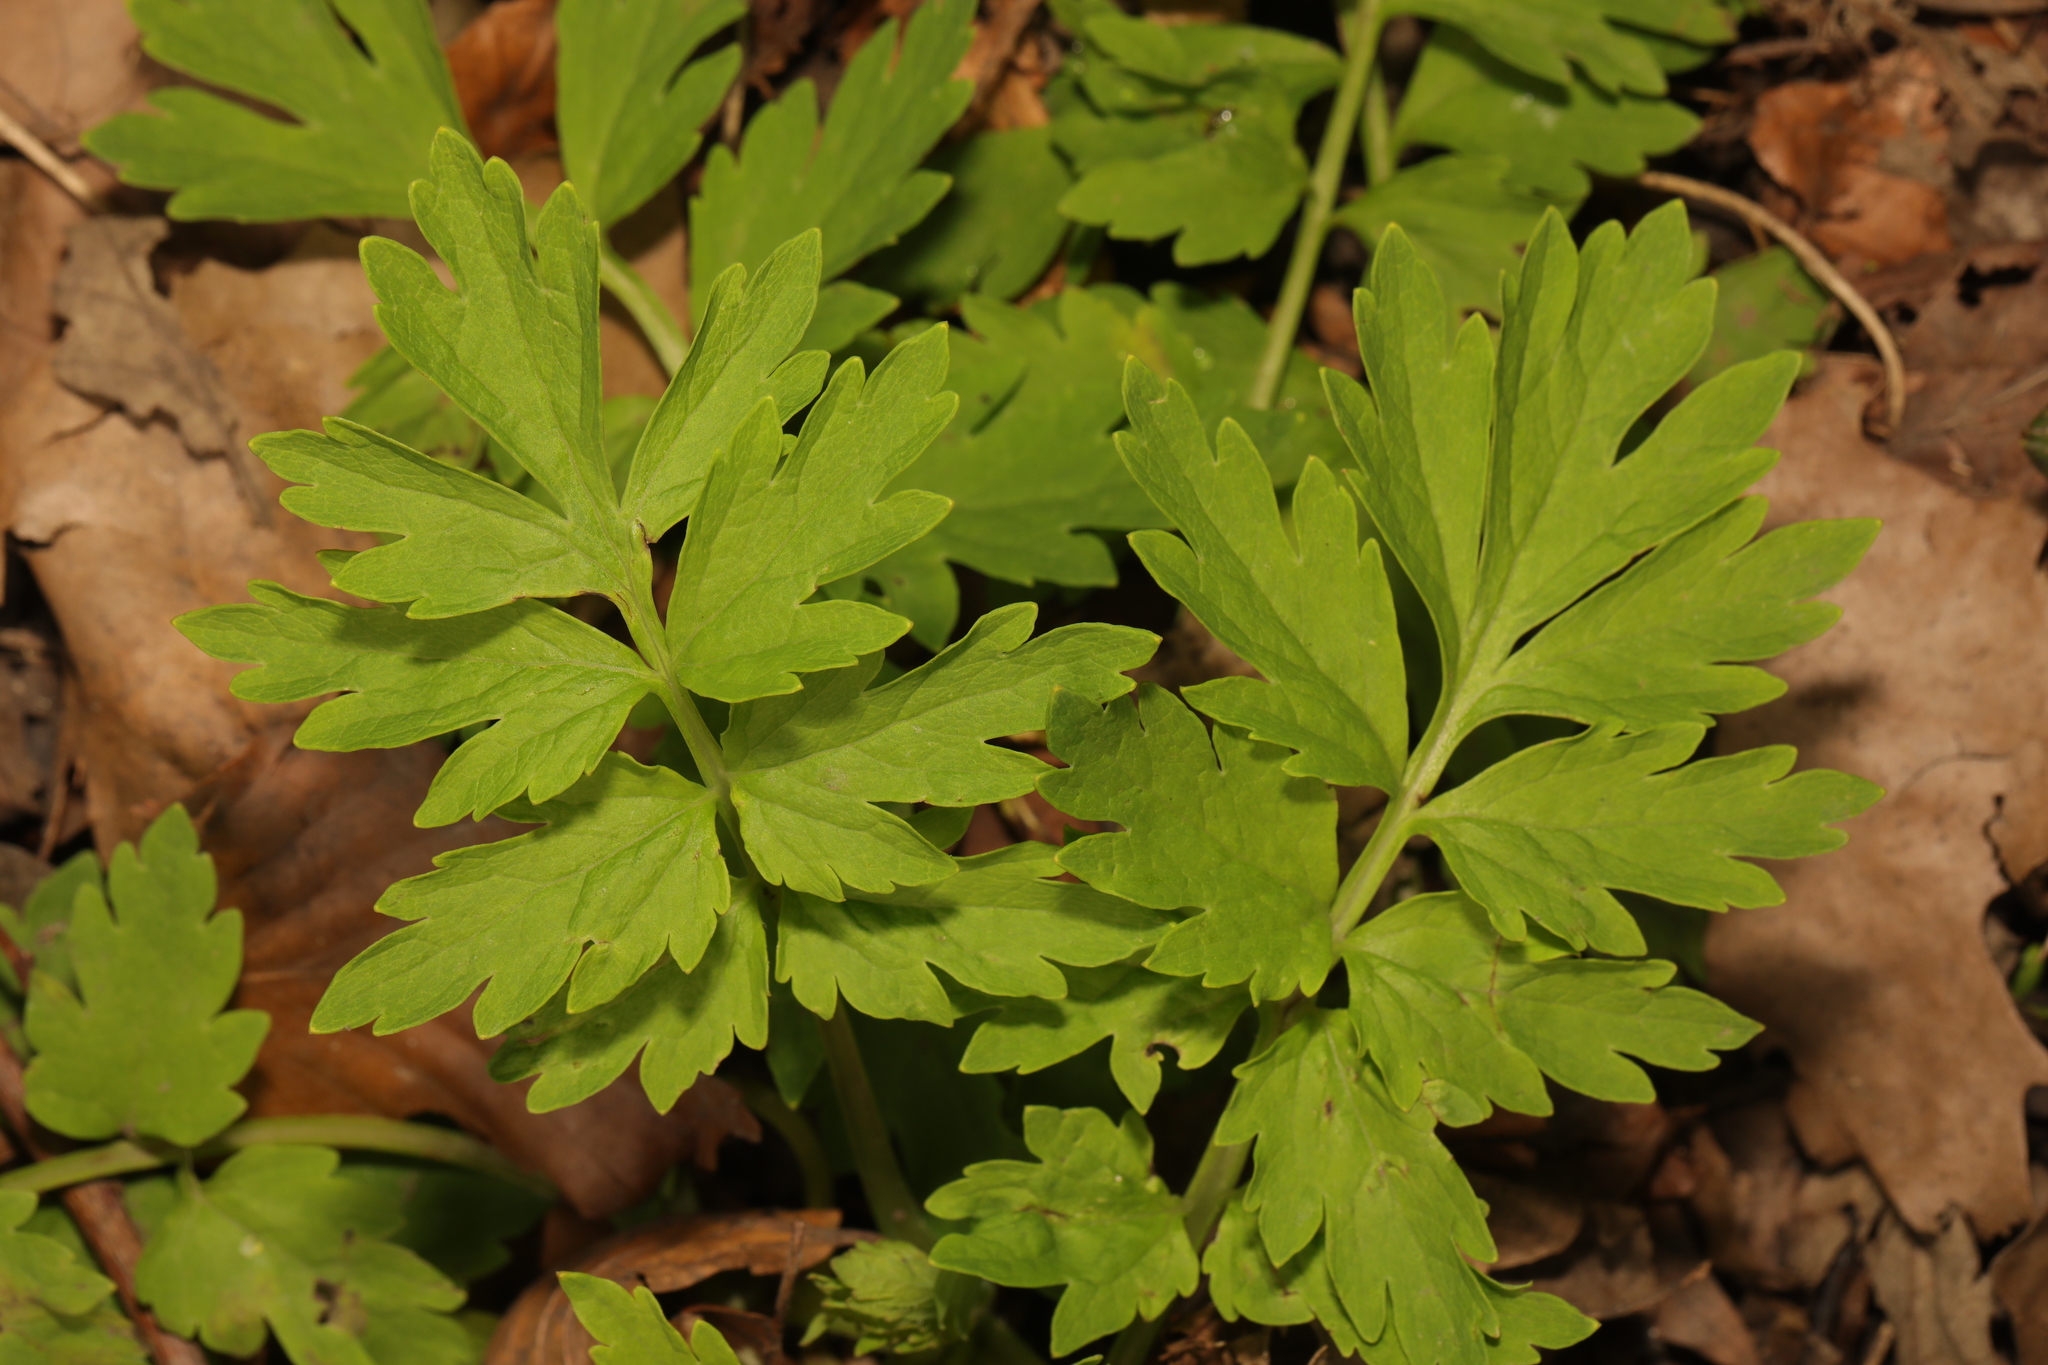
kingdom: Plantae
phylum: Tracheophyta
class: Magnoliopsida
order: Ranunculales
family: Papaveraceae
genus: Papaver
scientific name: Papaver cambricum
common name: Poppy
